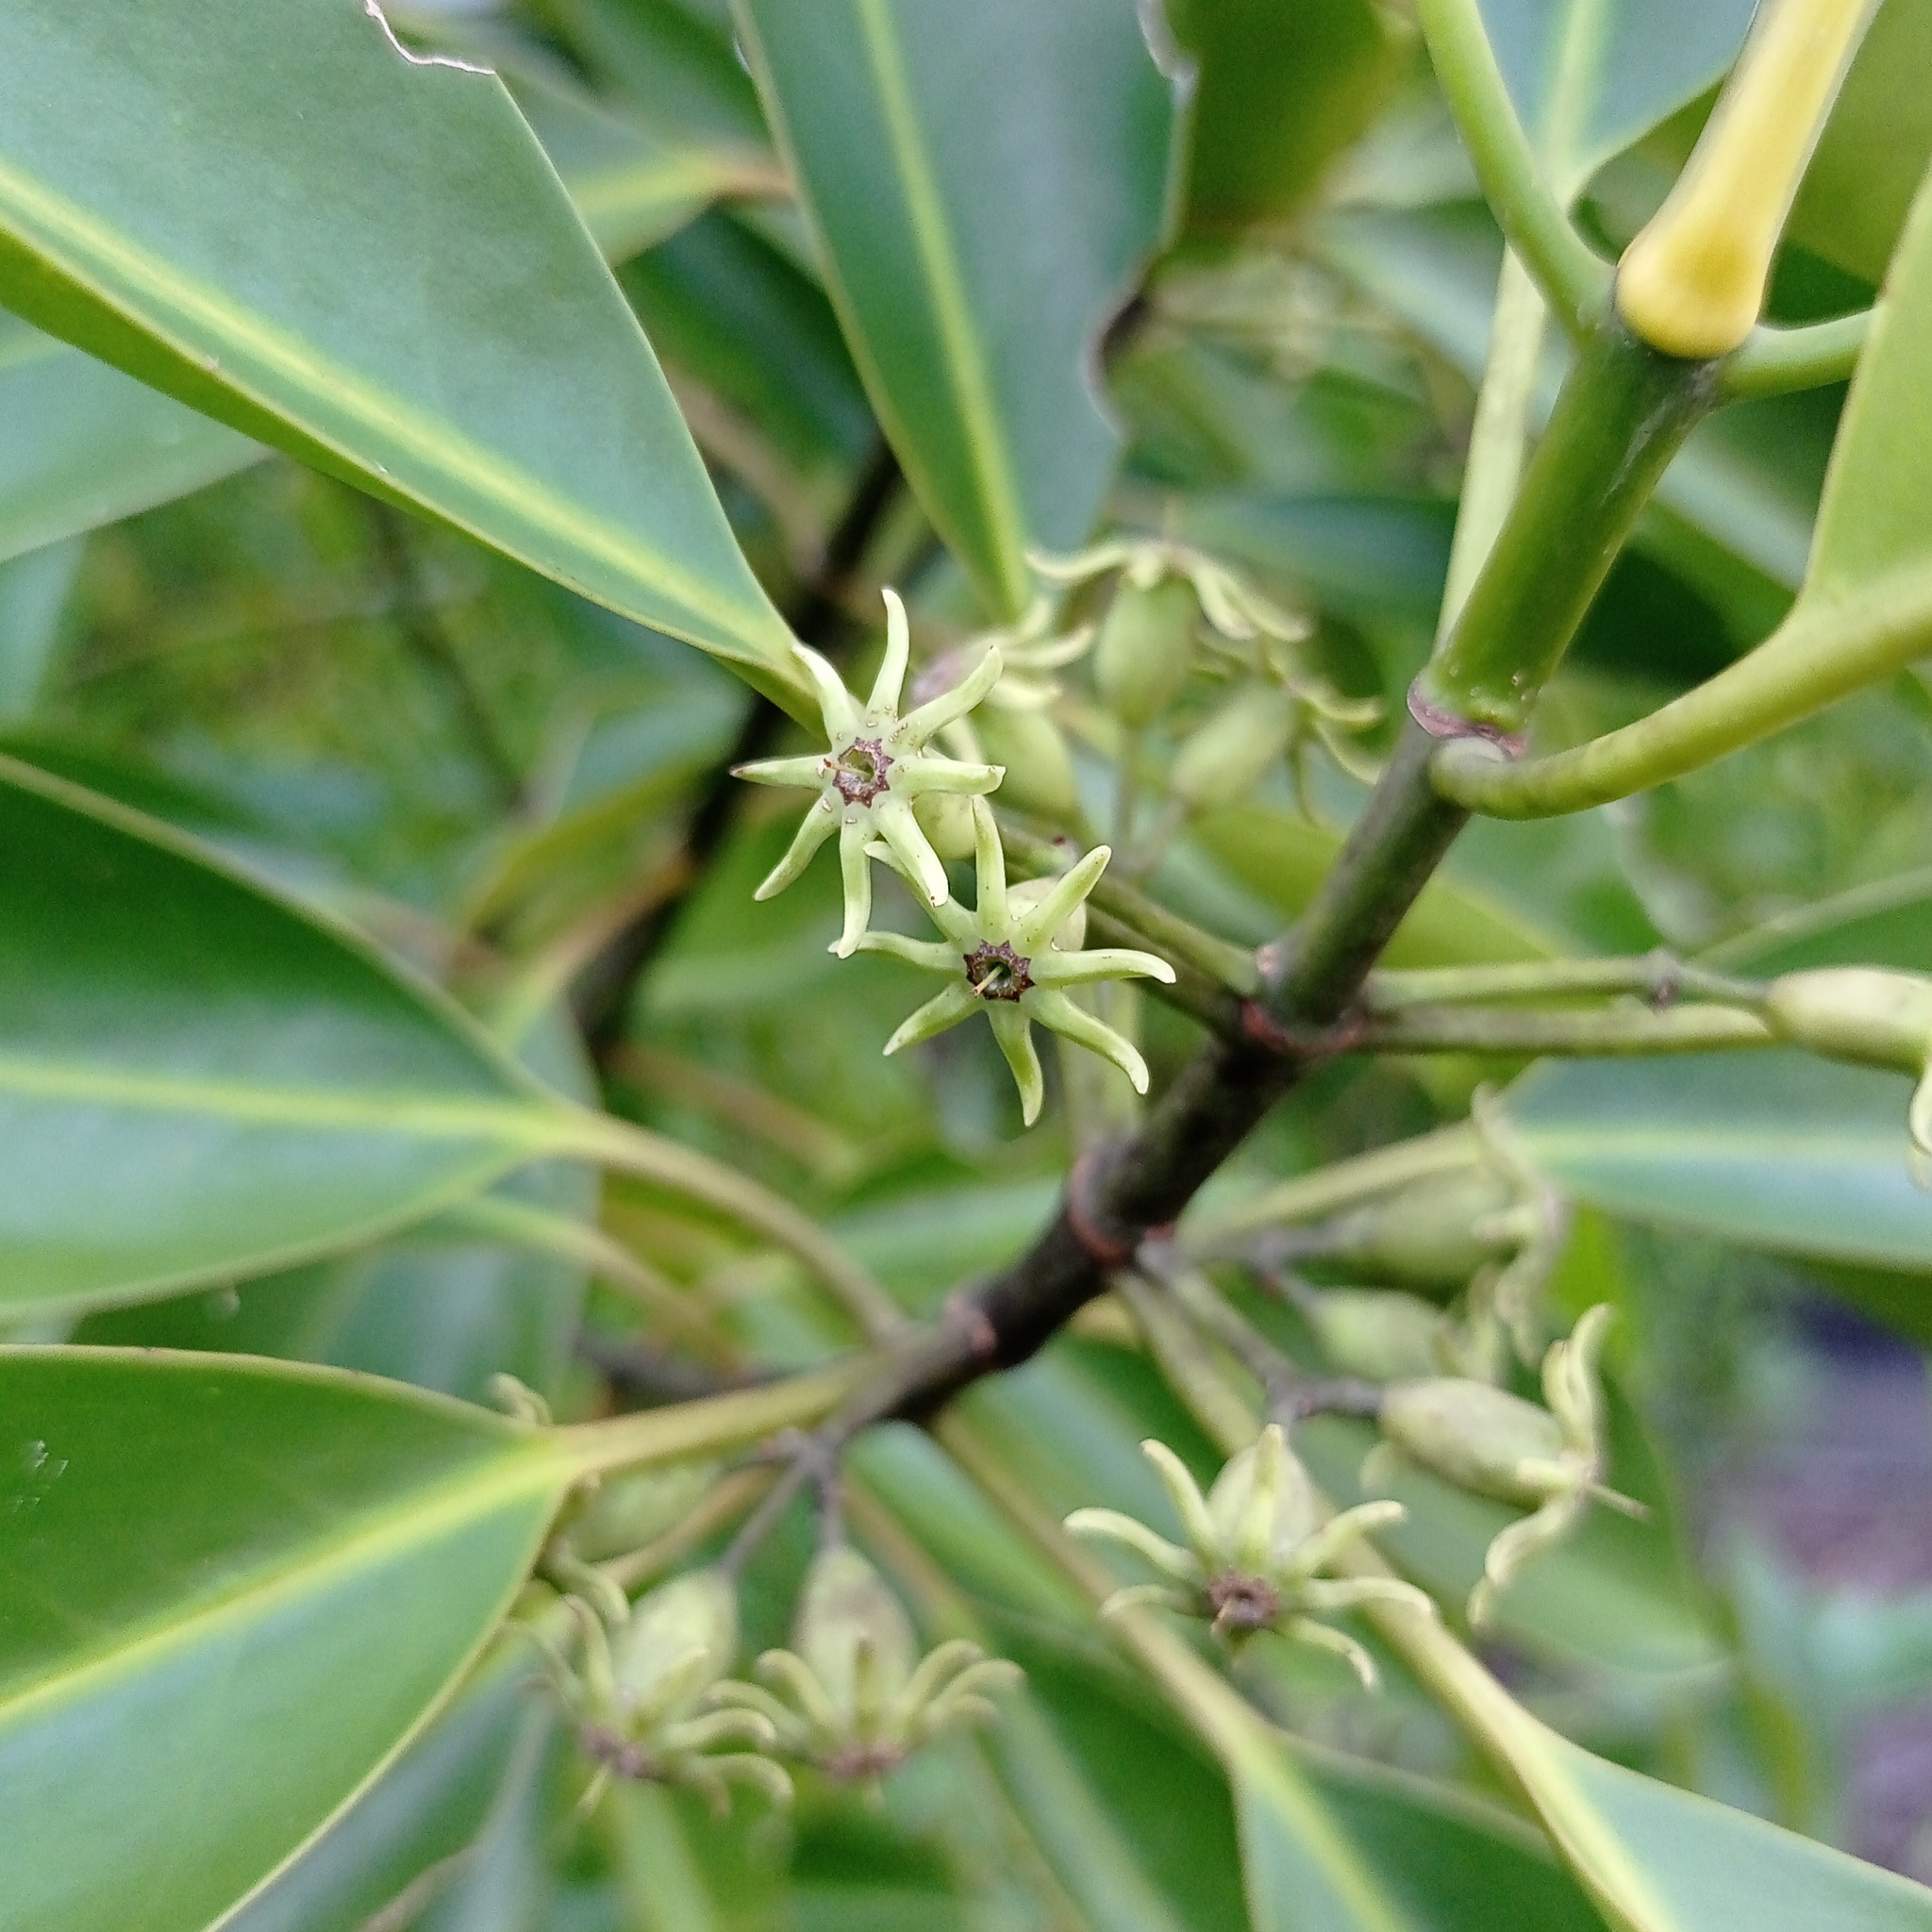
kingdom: Plantae
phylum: Tracheophyta
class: Magnoliopsida
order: Malpighiales
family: Rhizophoraceae
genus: Bruguiera
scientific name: Bruguiera cylindrica
